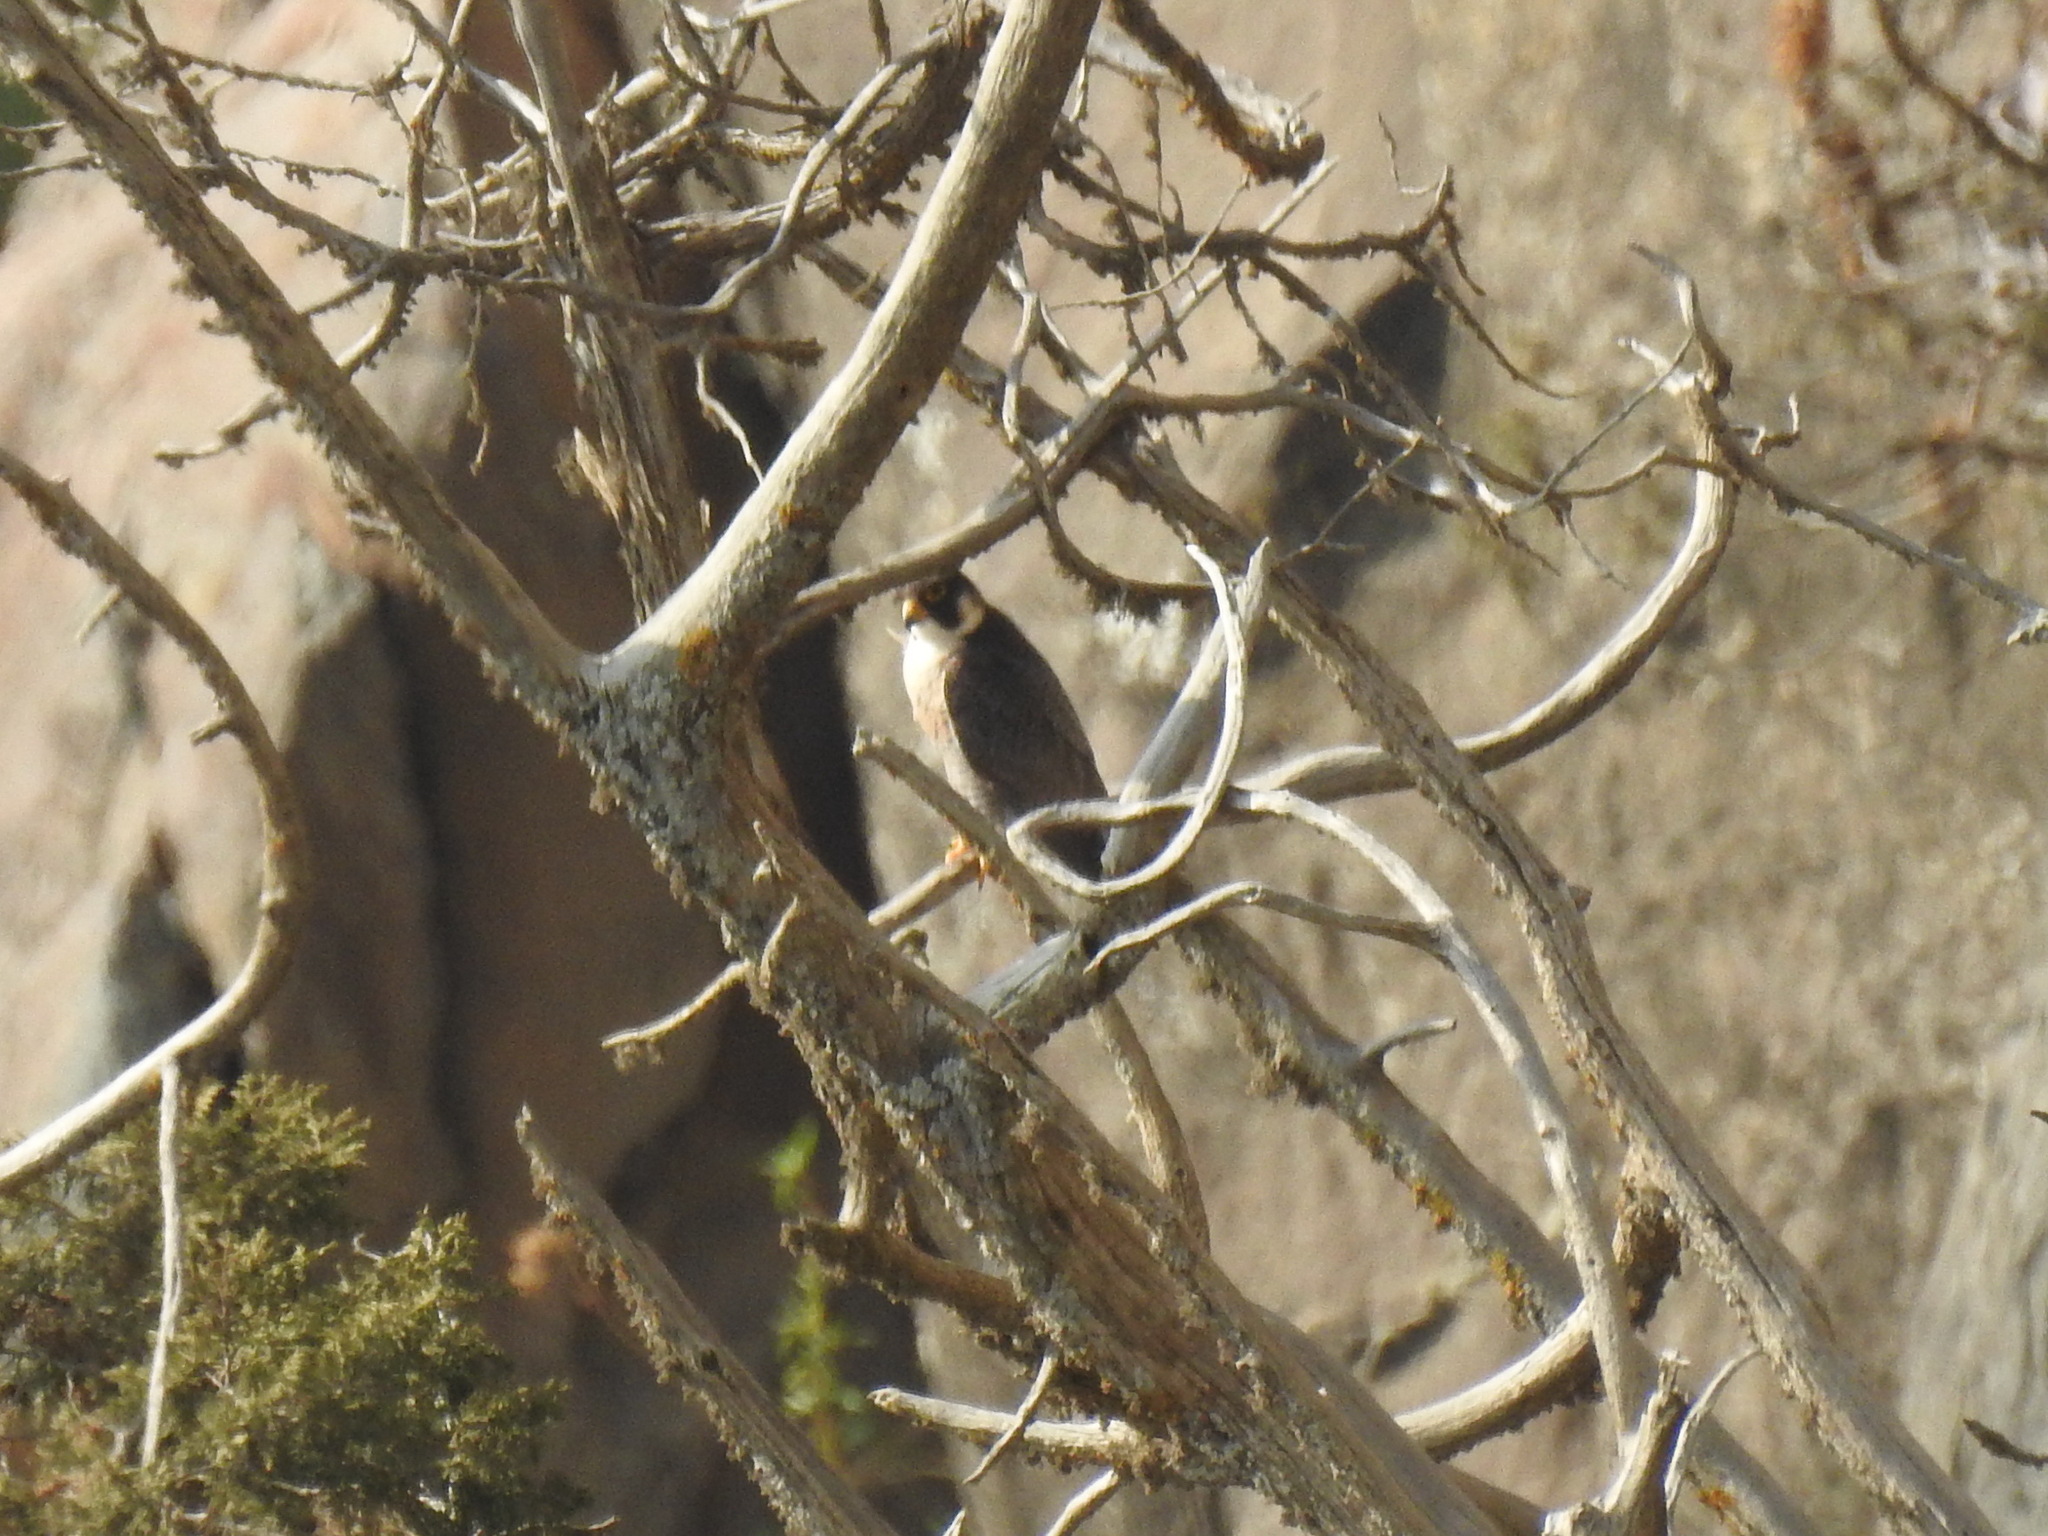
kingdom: Animalia
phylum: Chordata
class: Aves
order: Falconiformes
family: Falconidae
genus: Falco
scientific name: Falco peregrinus
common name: Peregrine falcon
